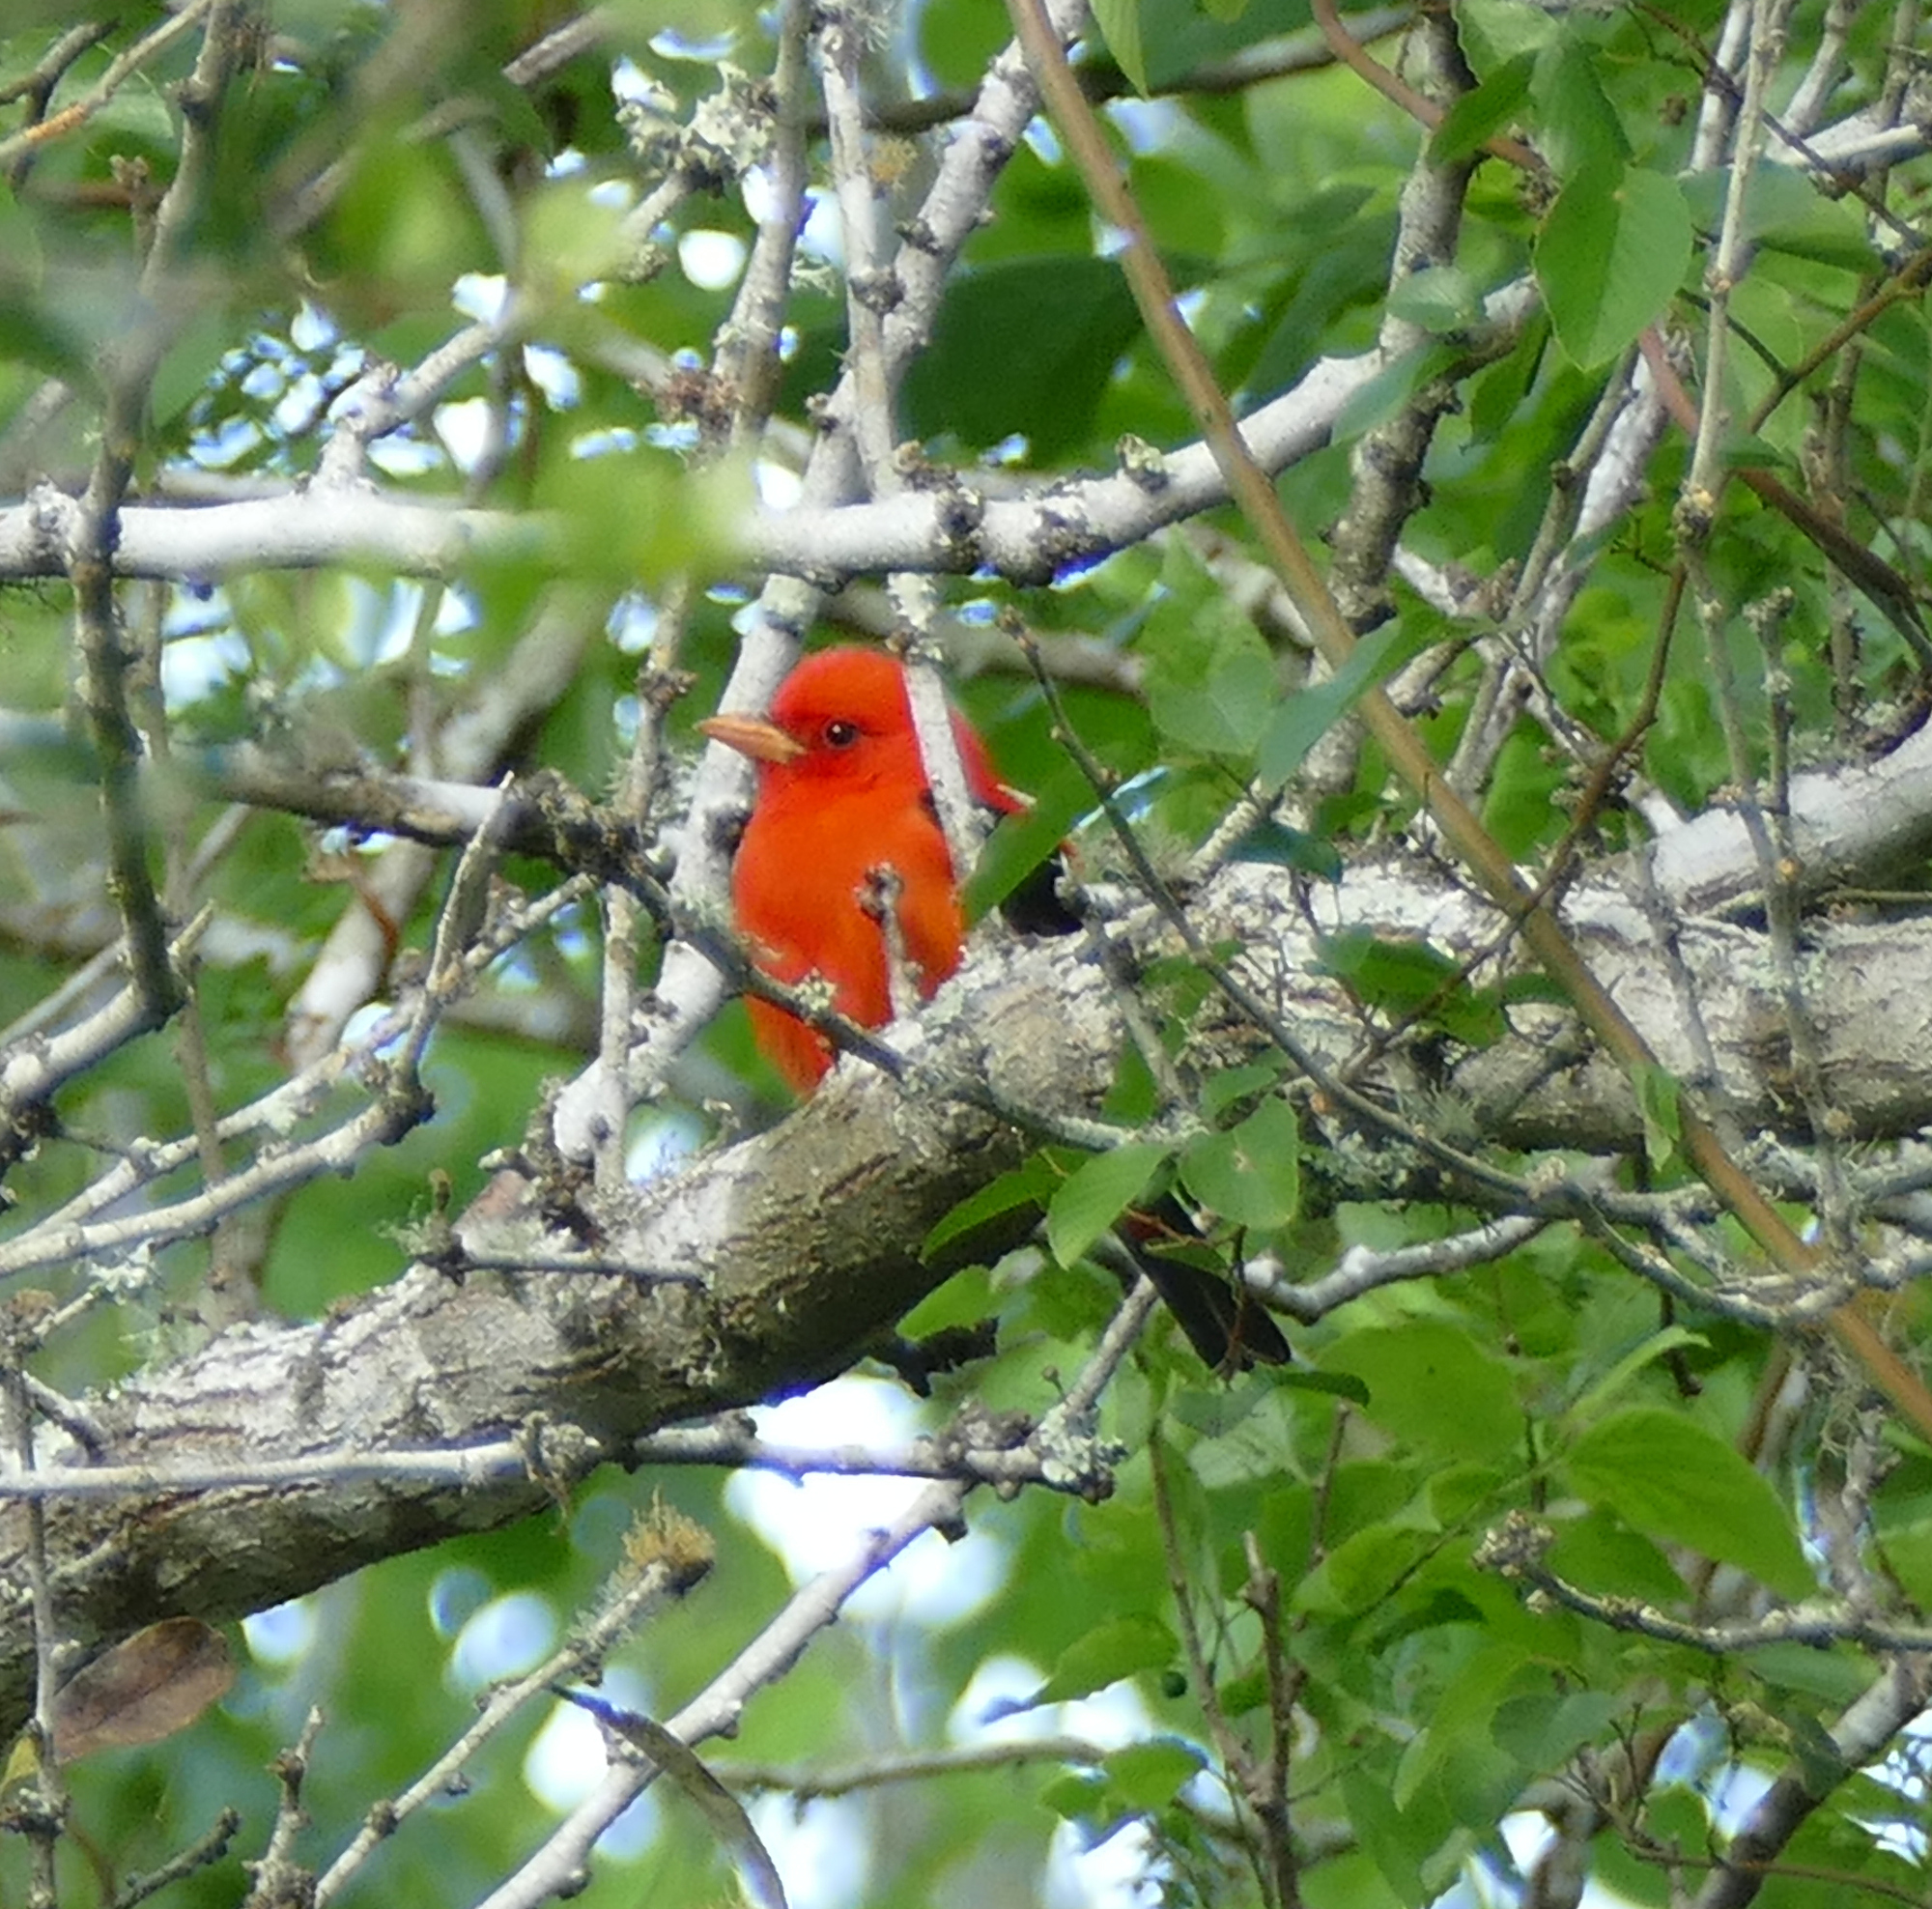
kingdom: Animalia
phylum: Chordata
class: Aves
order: Passeriformes
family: Cardinalidae
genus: Piranga
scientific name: Piranga olivacea
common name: Scarlet tanager
